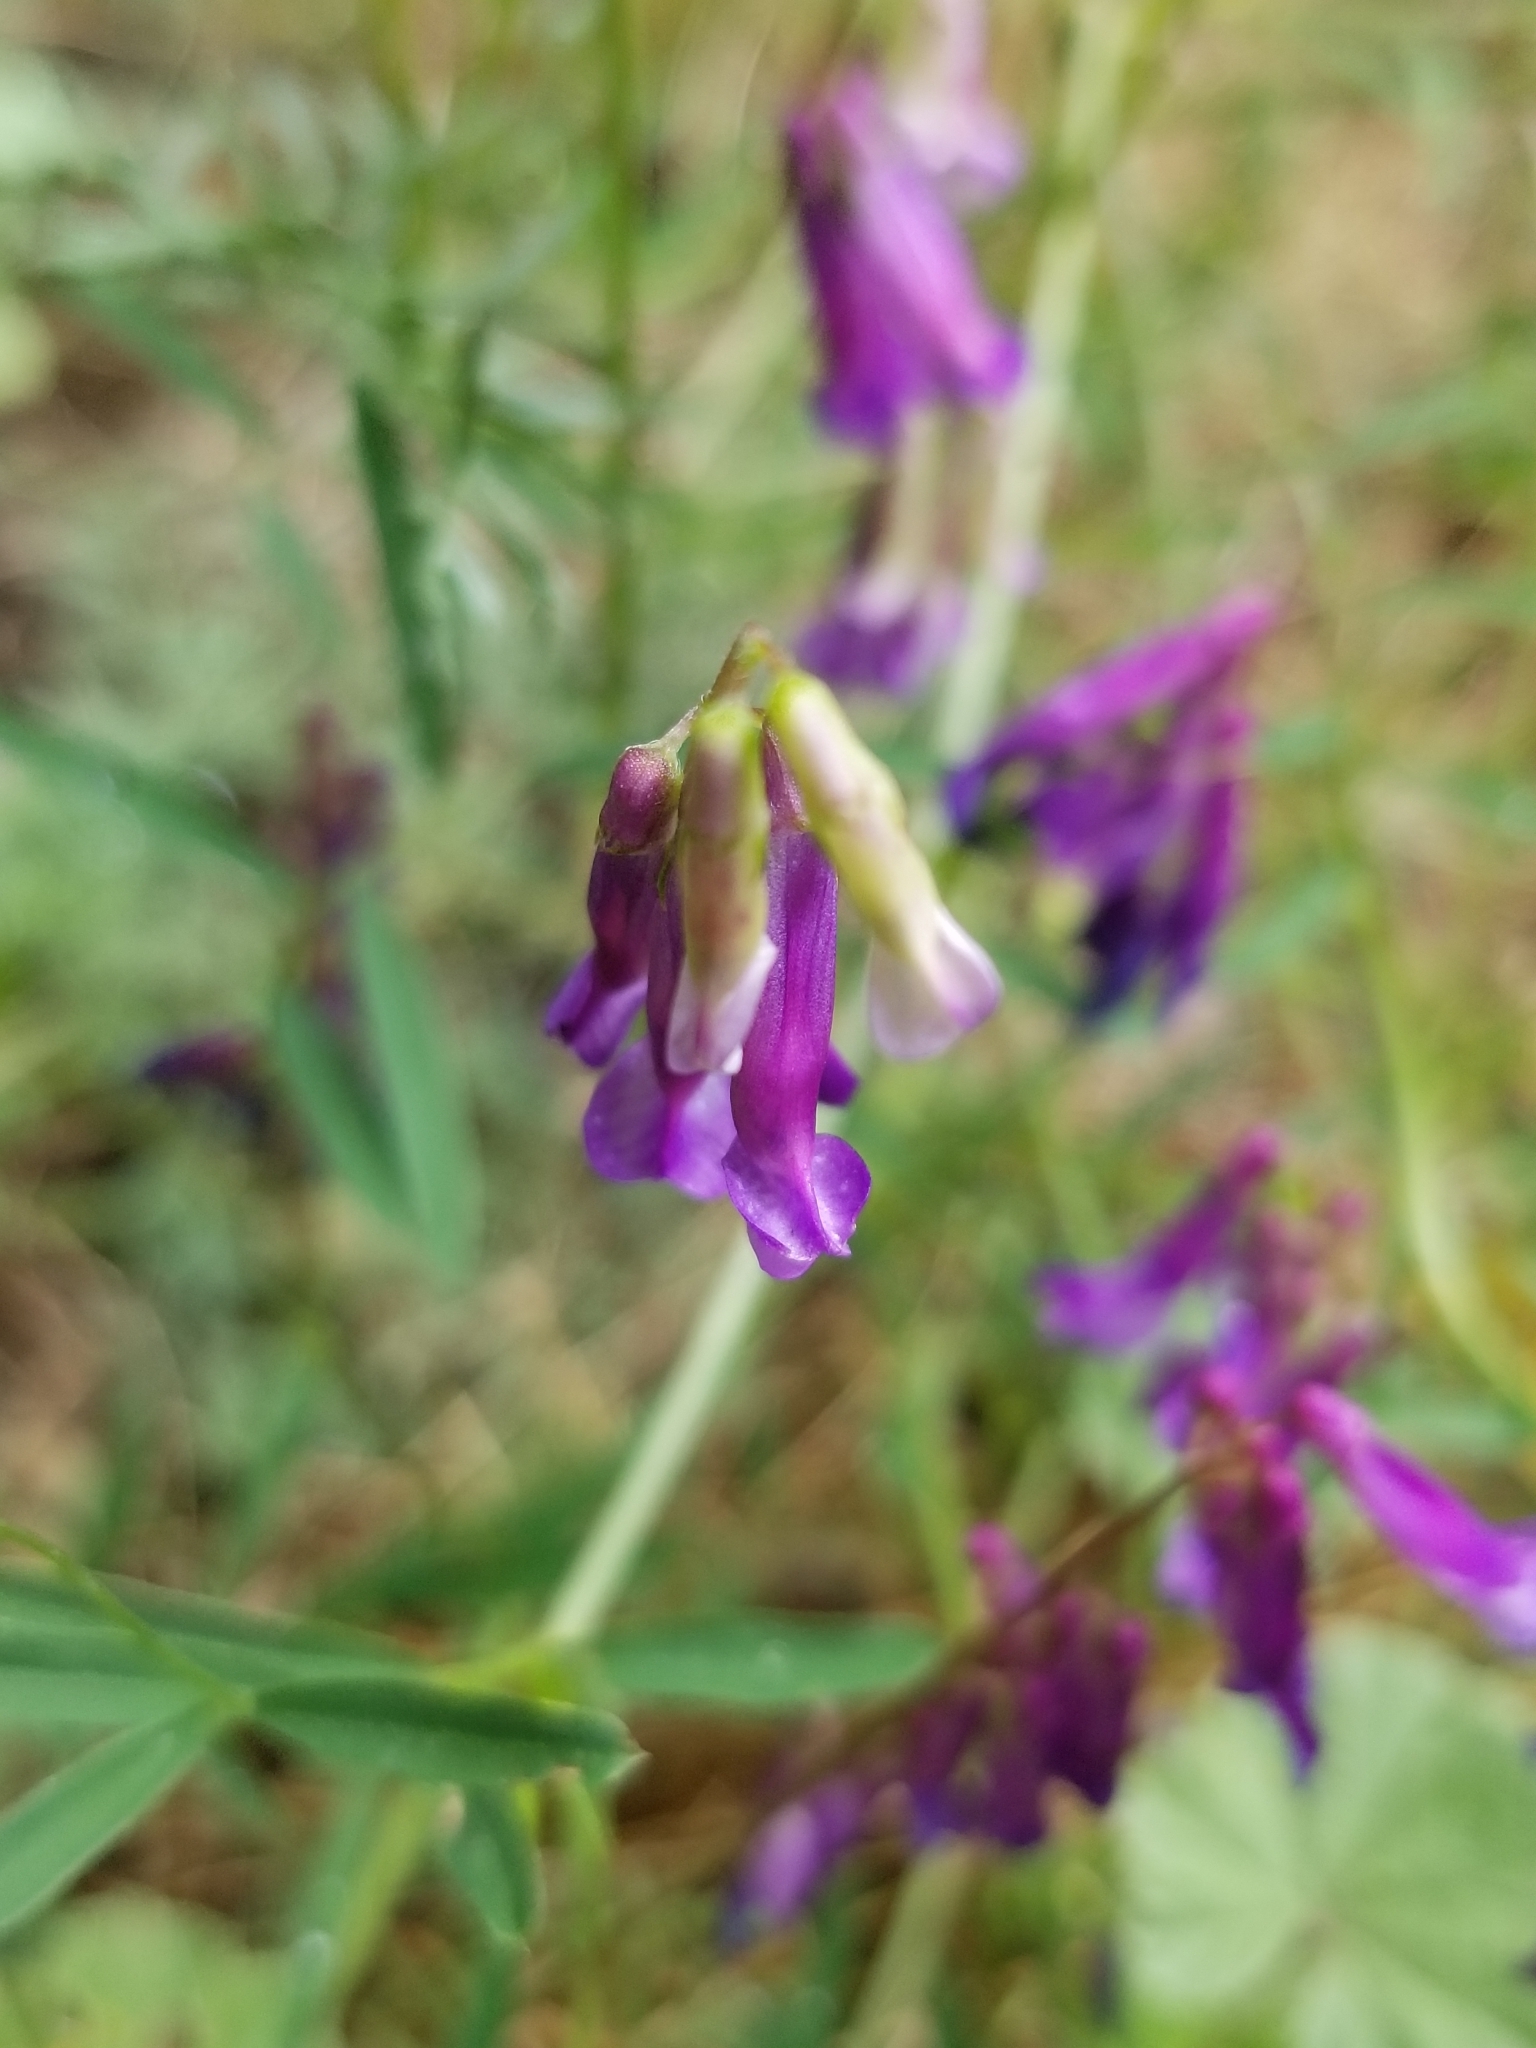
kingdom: Plantae
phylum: Tracheophyta
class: Magnoliopsida
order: Fabales
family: Fabaceae
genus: Vicia
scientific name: Vicia villosa
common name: Fodder vetch
